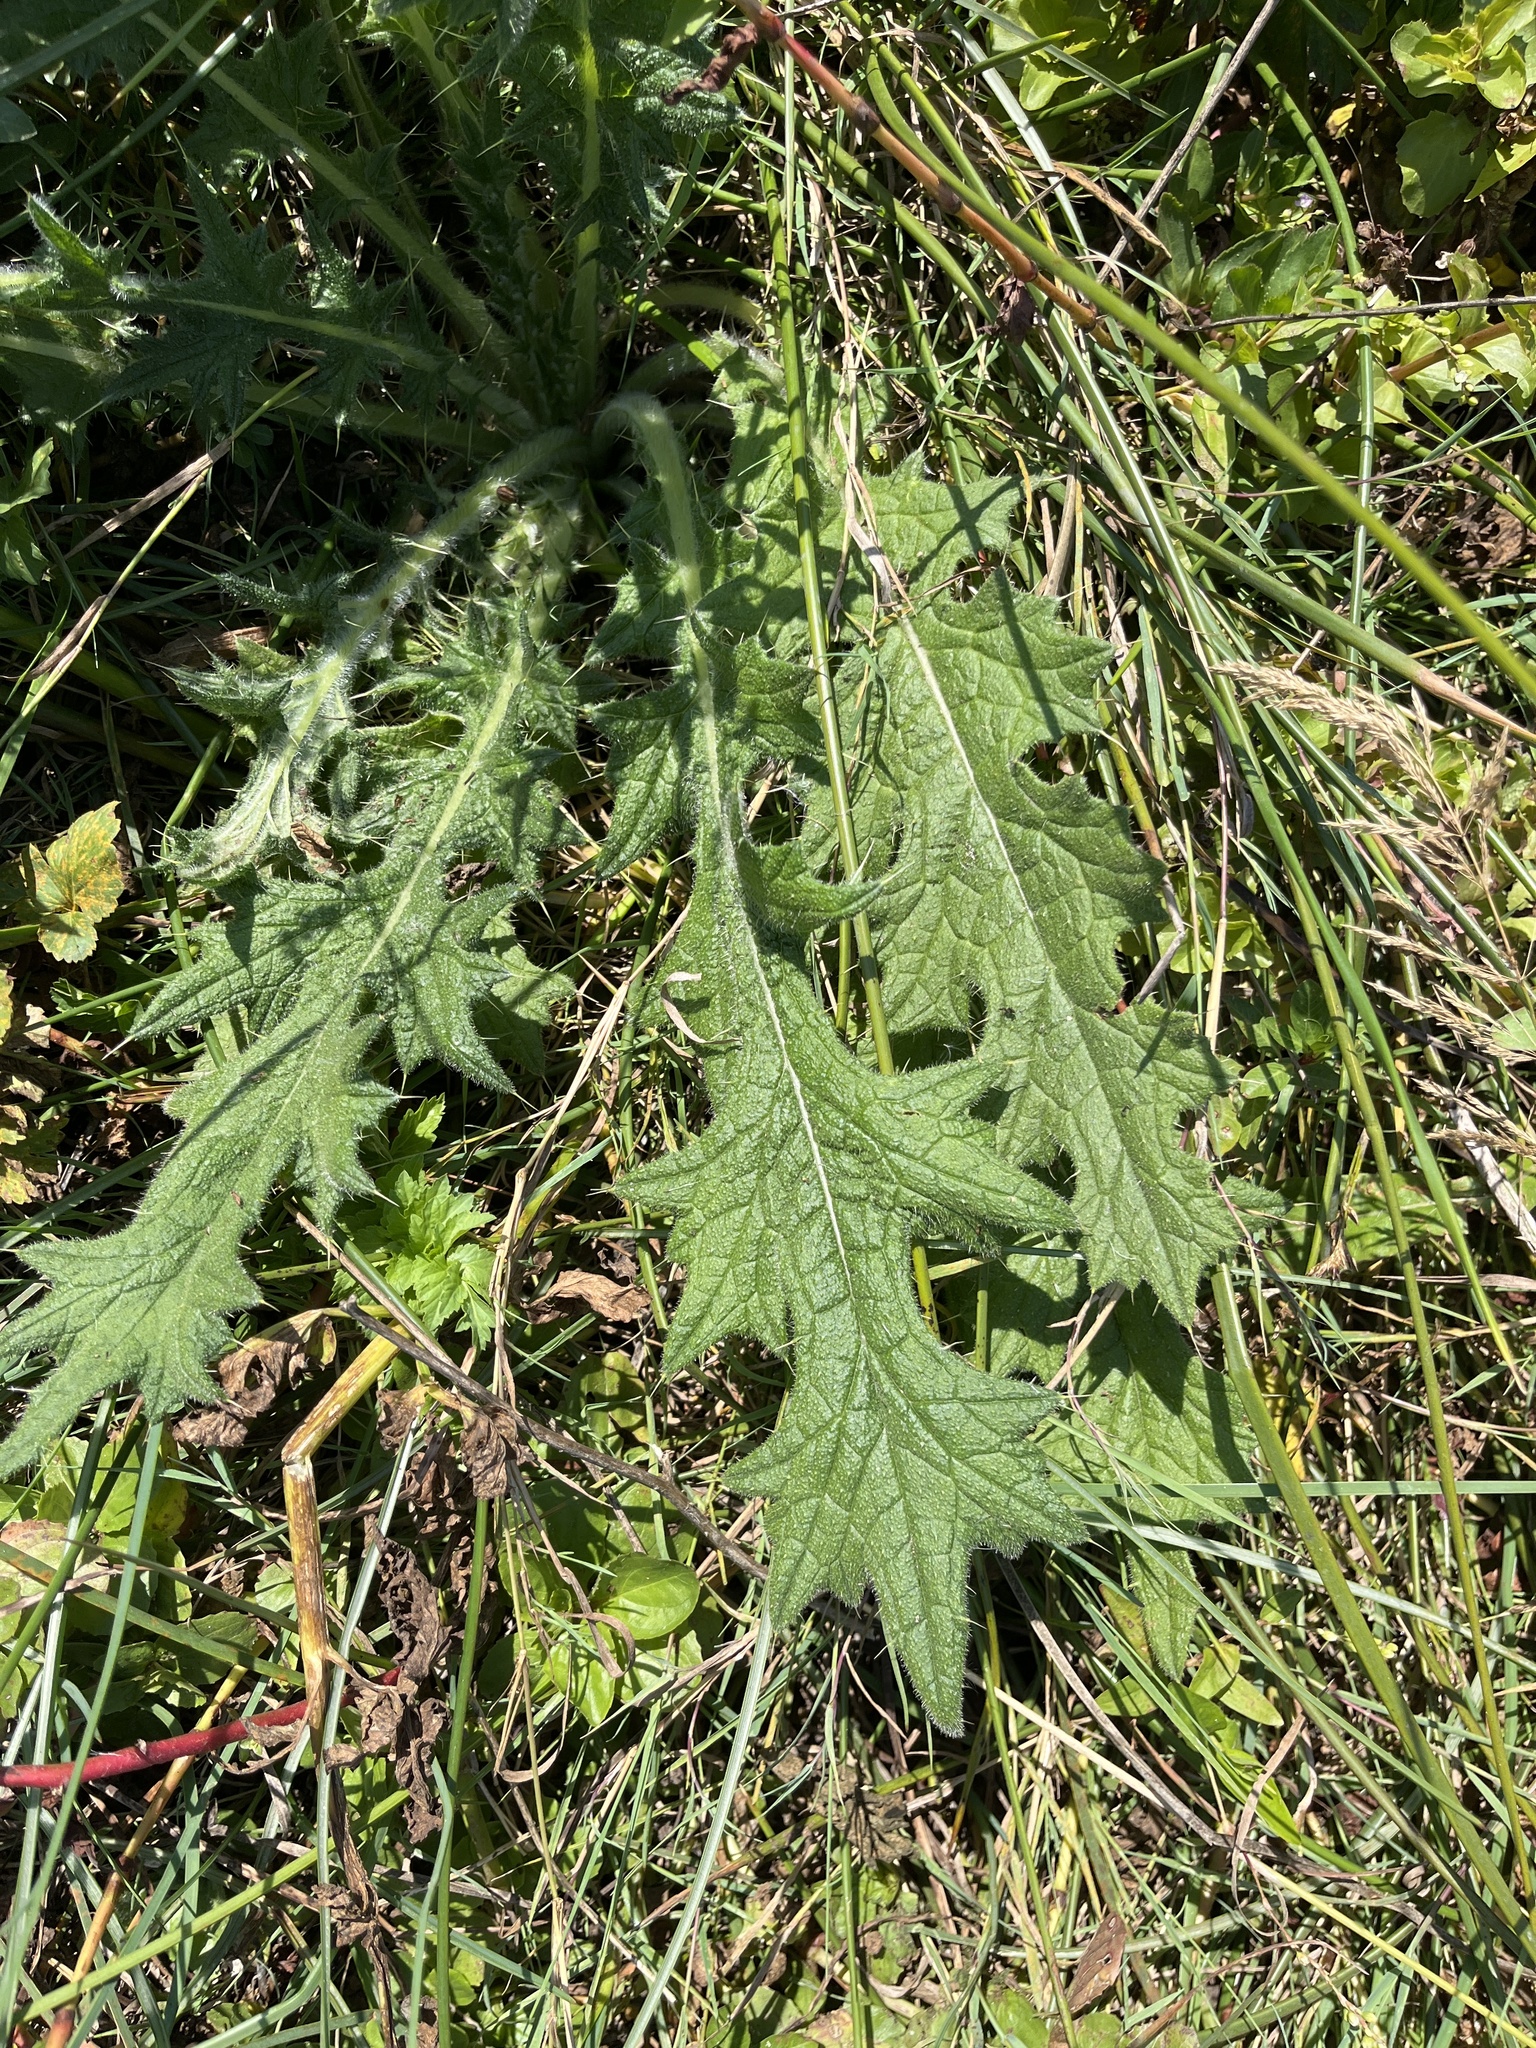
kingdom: Plantae
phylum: Tracheophyta
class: Magnoliopsida
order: Asterales
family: Asteraceae
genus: Cirsium
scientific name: Cirsium vulgare
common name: Bull thistle
